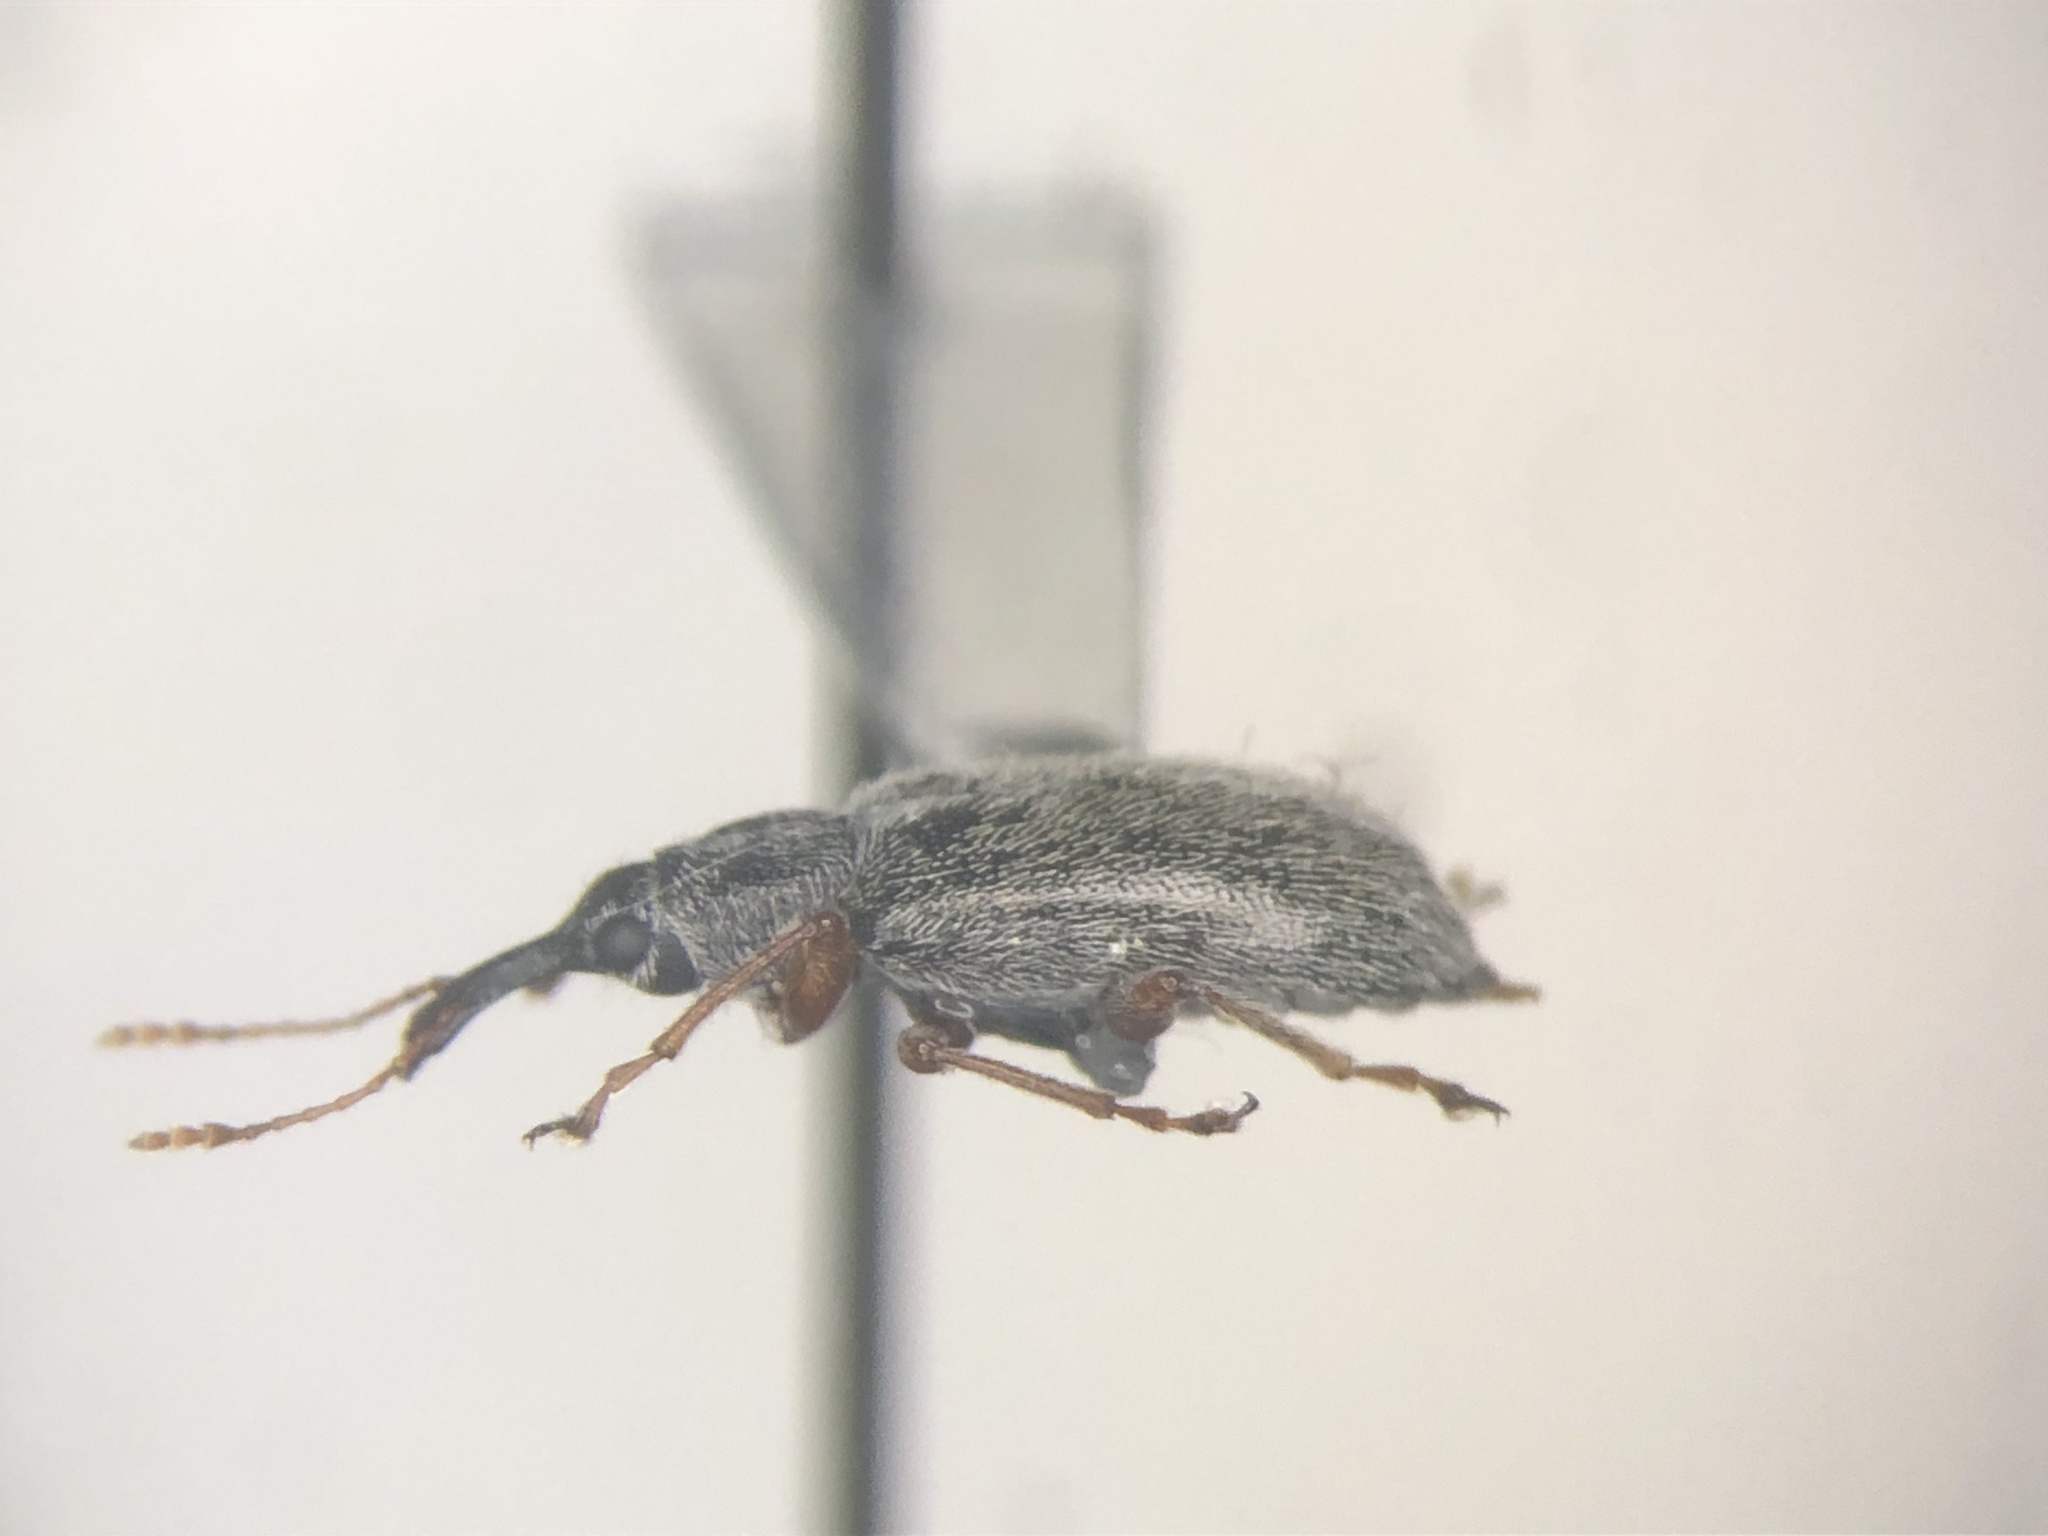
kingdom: Animalia
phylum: Arthropoda
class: Insecta
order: Coleoptera
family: Nemonychidae
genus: Cimberis
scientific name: Cimberis pilosa
